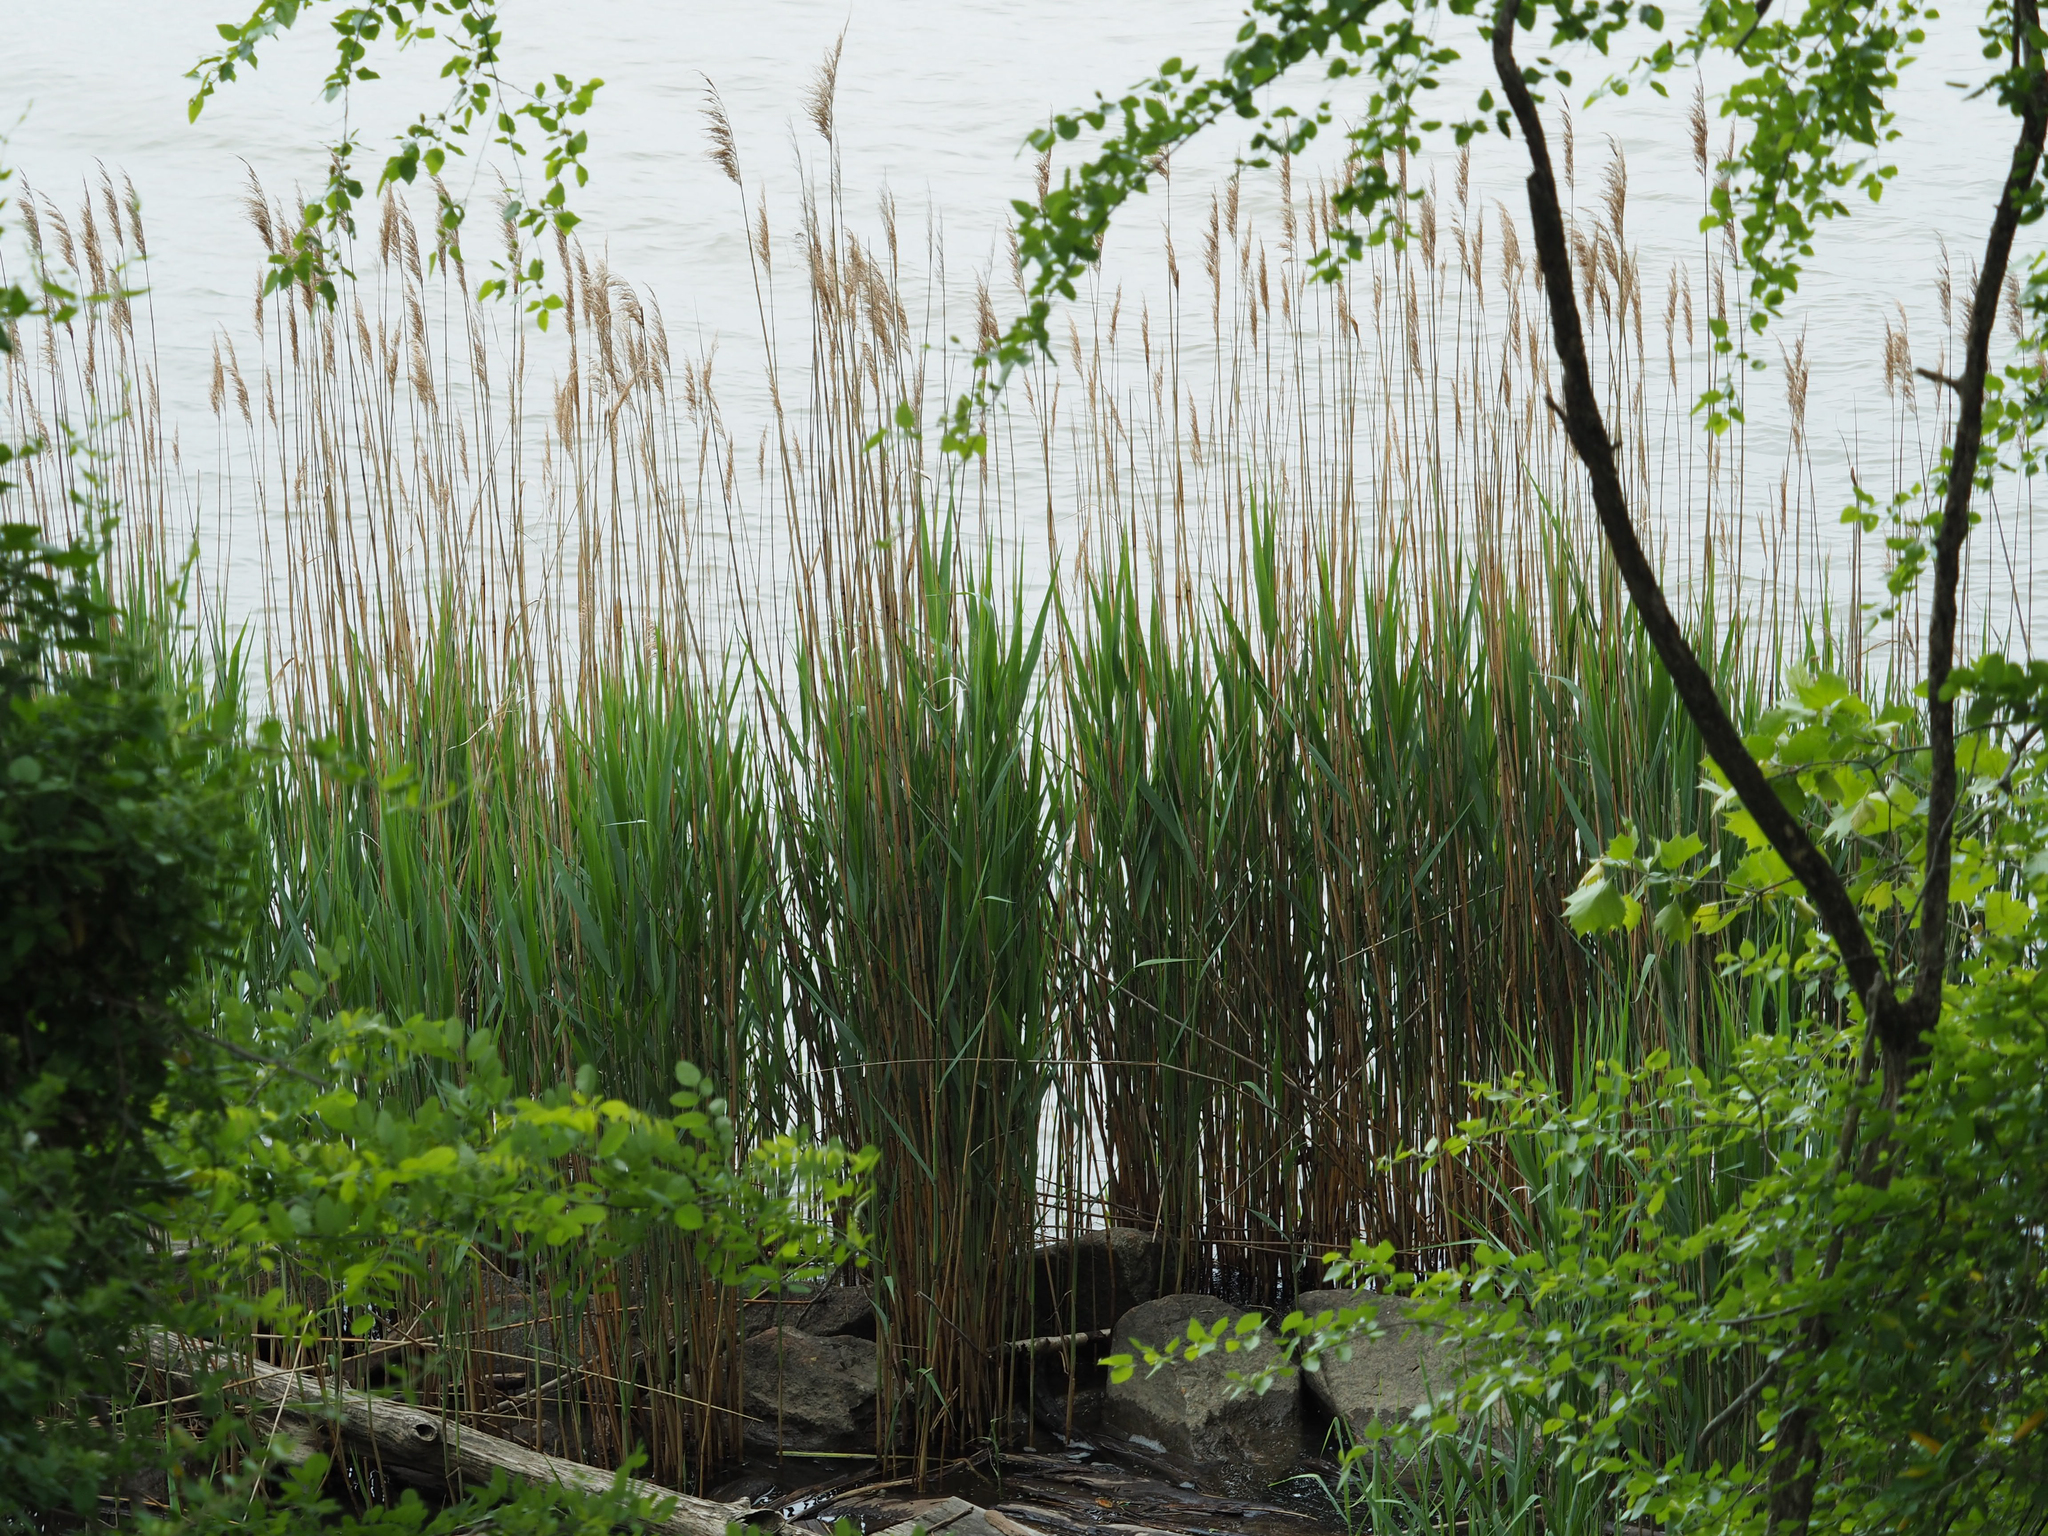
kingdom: Plantae
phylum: Tracheophyta
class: Liliopsida
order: Poales
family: Poaceae
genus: Phragmites
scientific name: Phragmites australis
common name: Common reed
